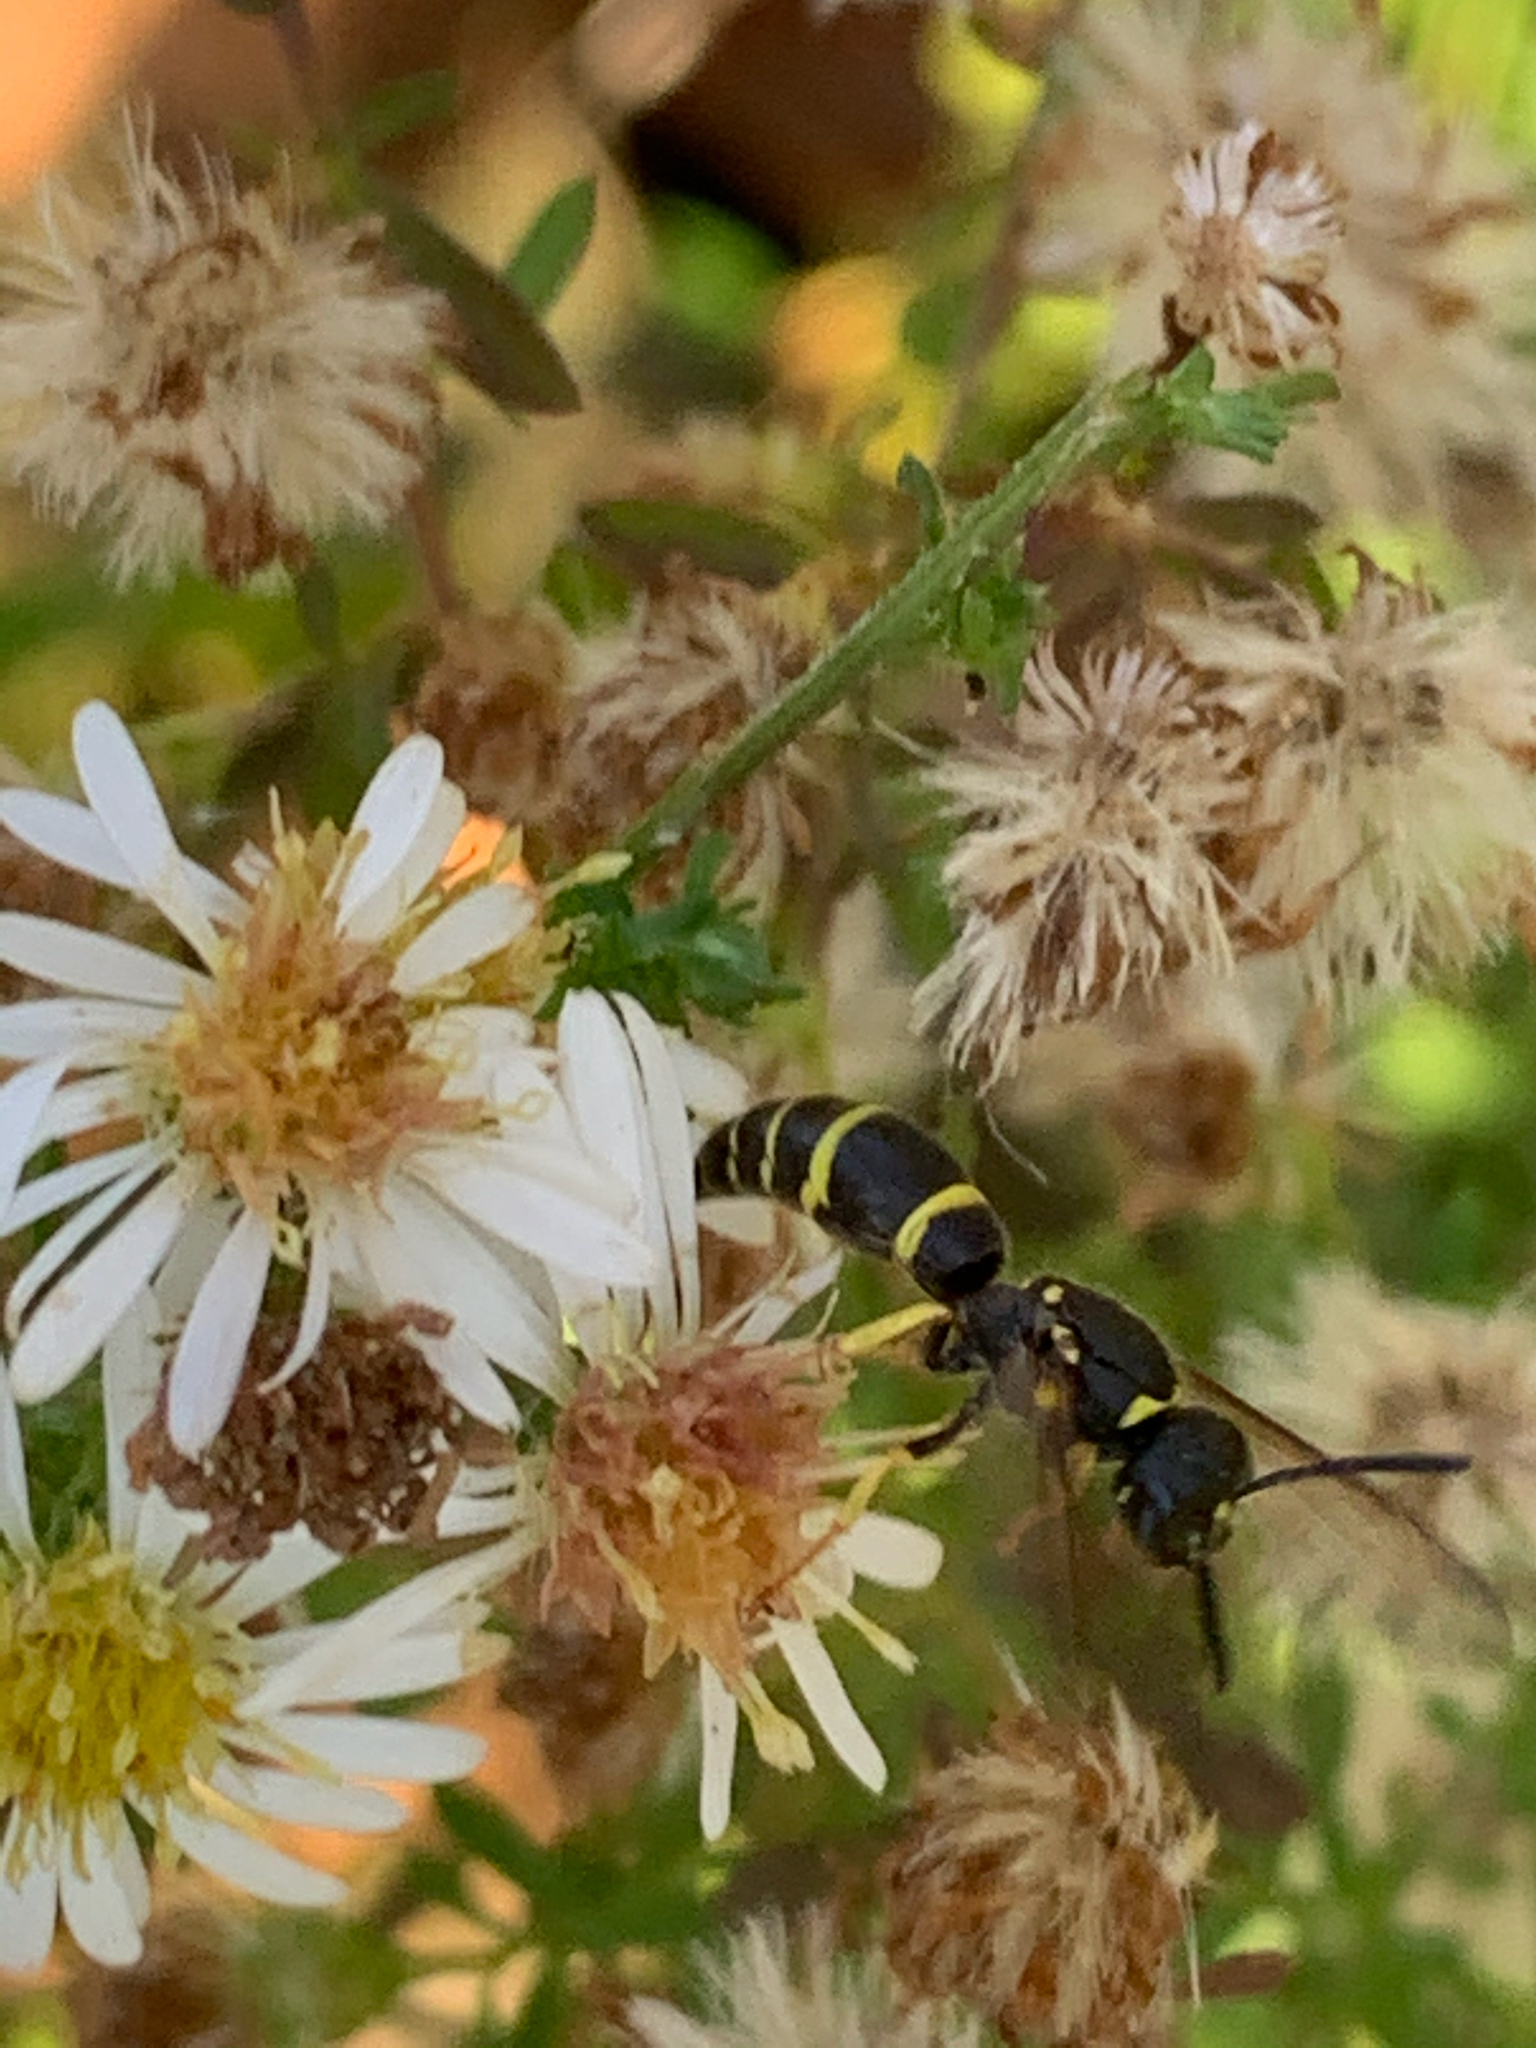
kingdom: Animalia
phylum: Arthropoda
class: Insecta
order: Hymenoptera
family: Vespidae
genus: Ancistrocerus
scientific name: Ancistrocerus adiabatus
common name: Bramble mason wasp
